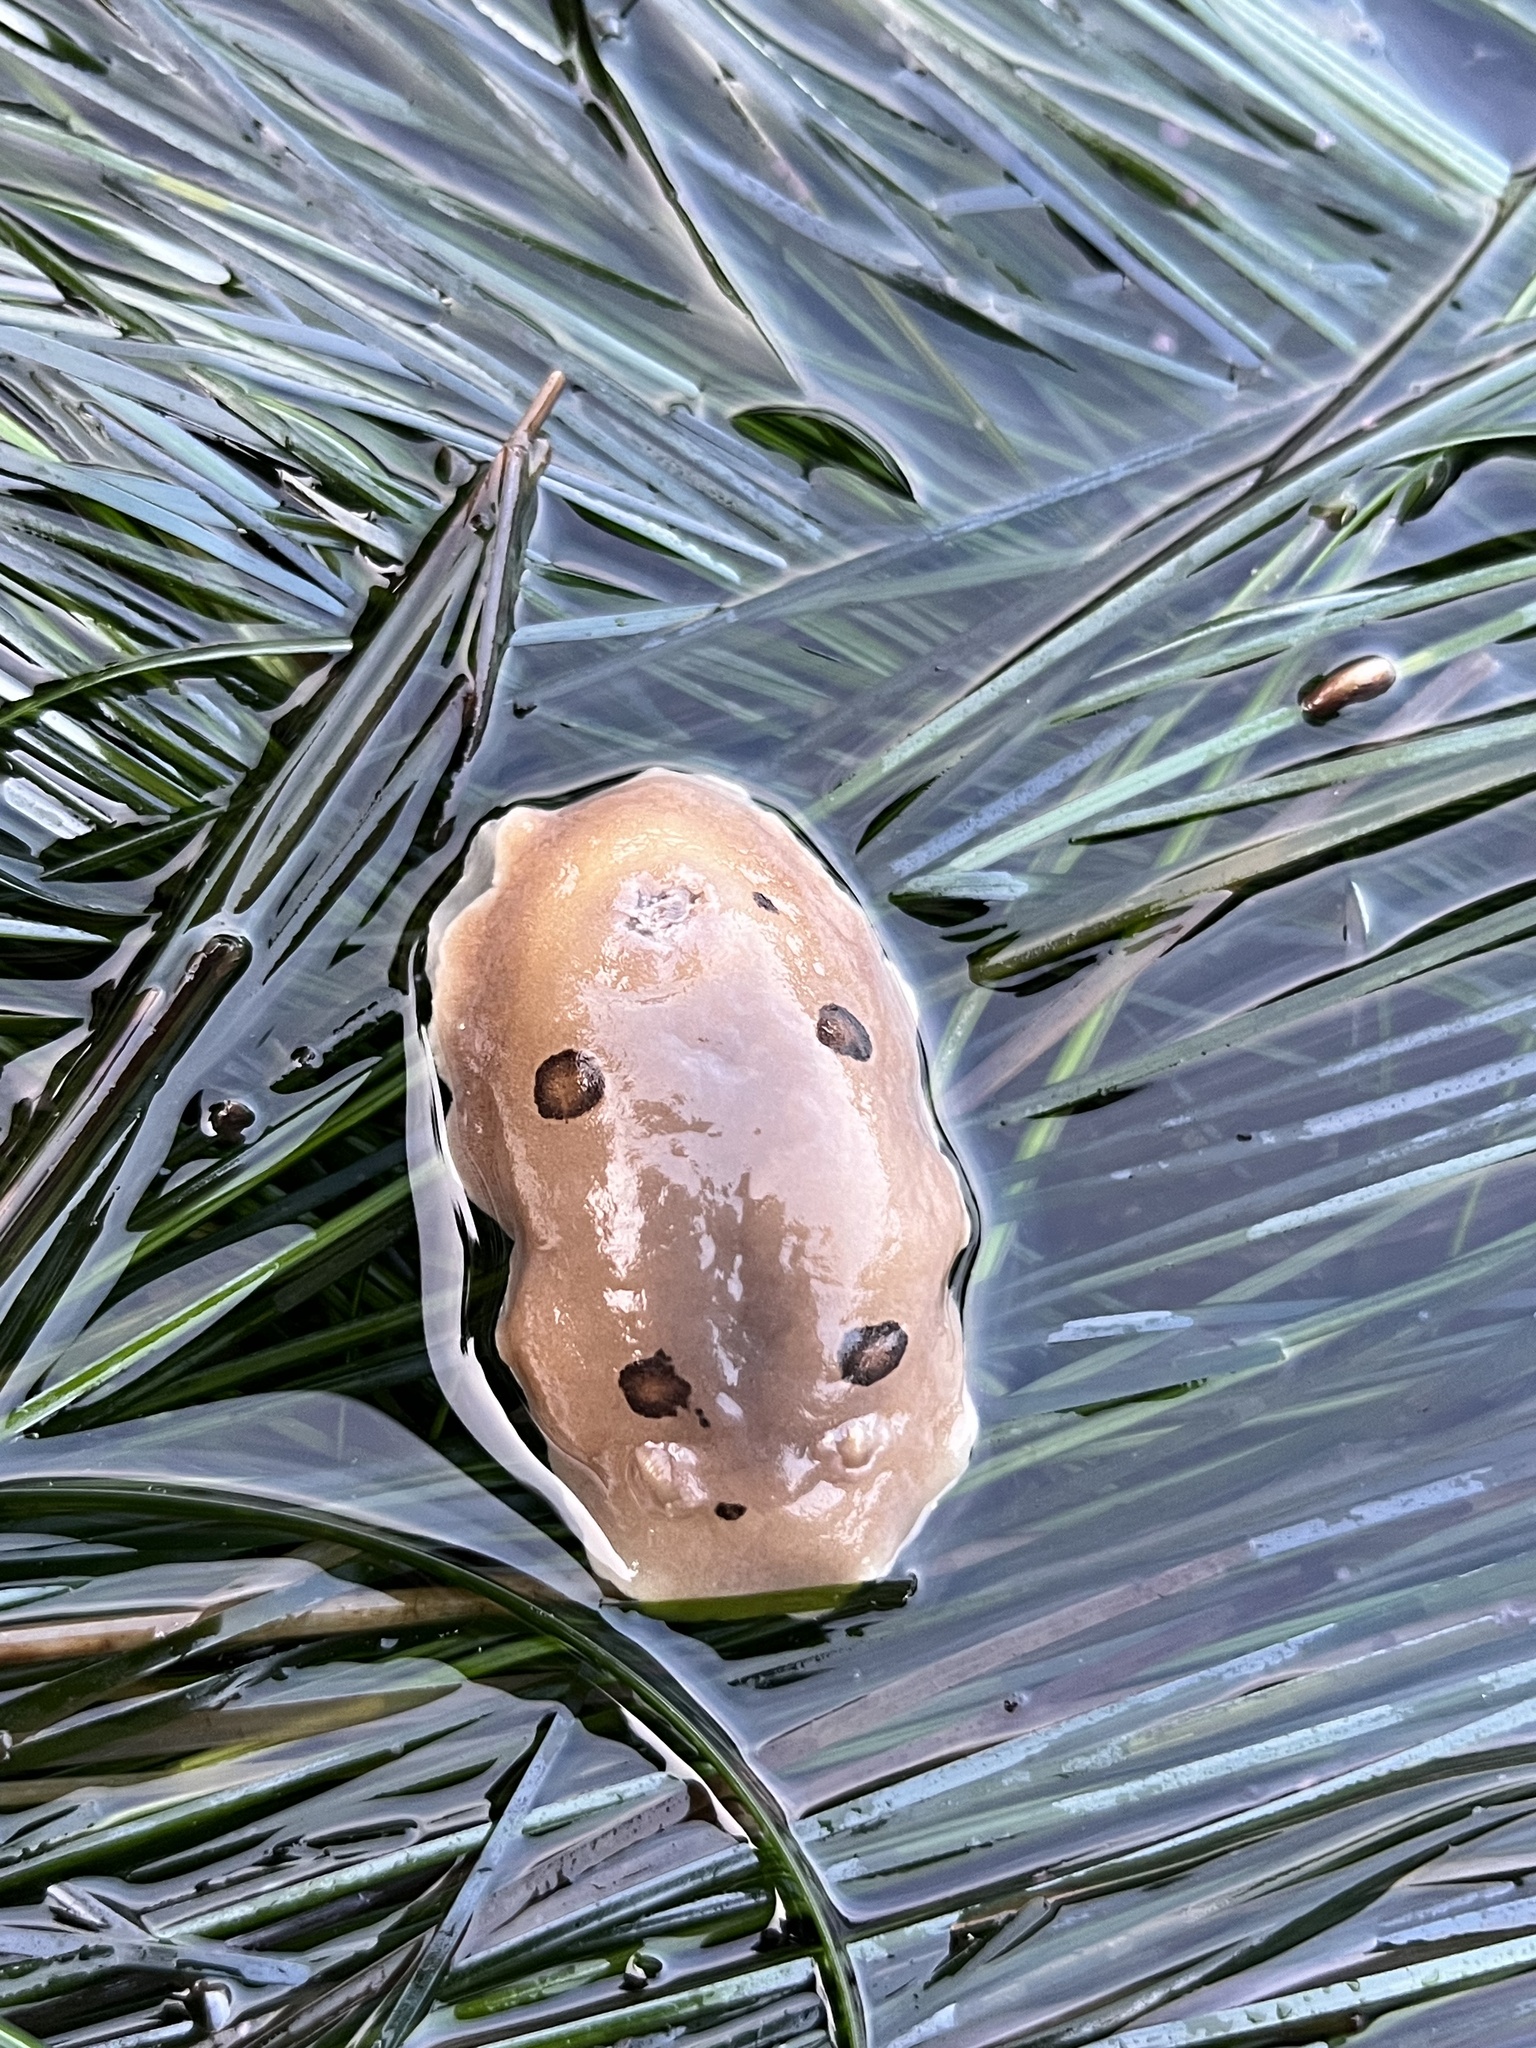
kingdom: Animalia
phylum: Mollusca
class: Gastropoda
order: Nudibranchia
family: Discodorididae
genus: Diaulula
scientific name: Diaulula sandiegensis
